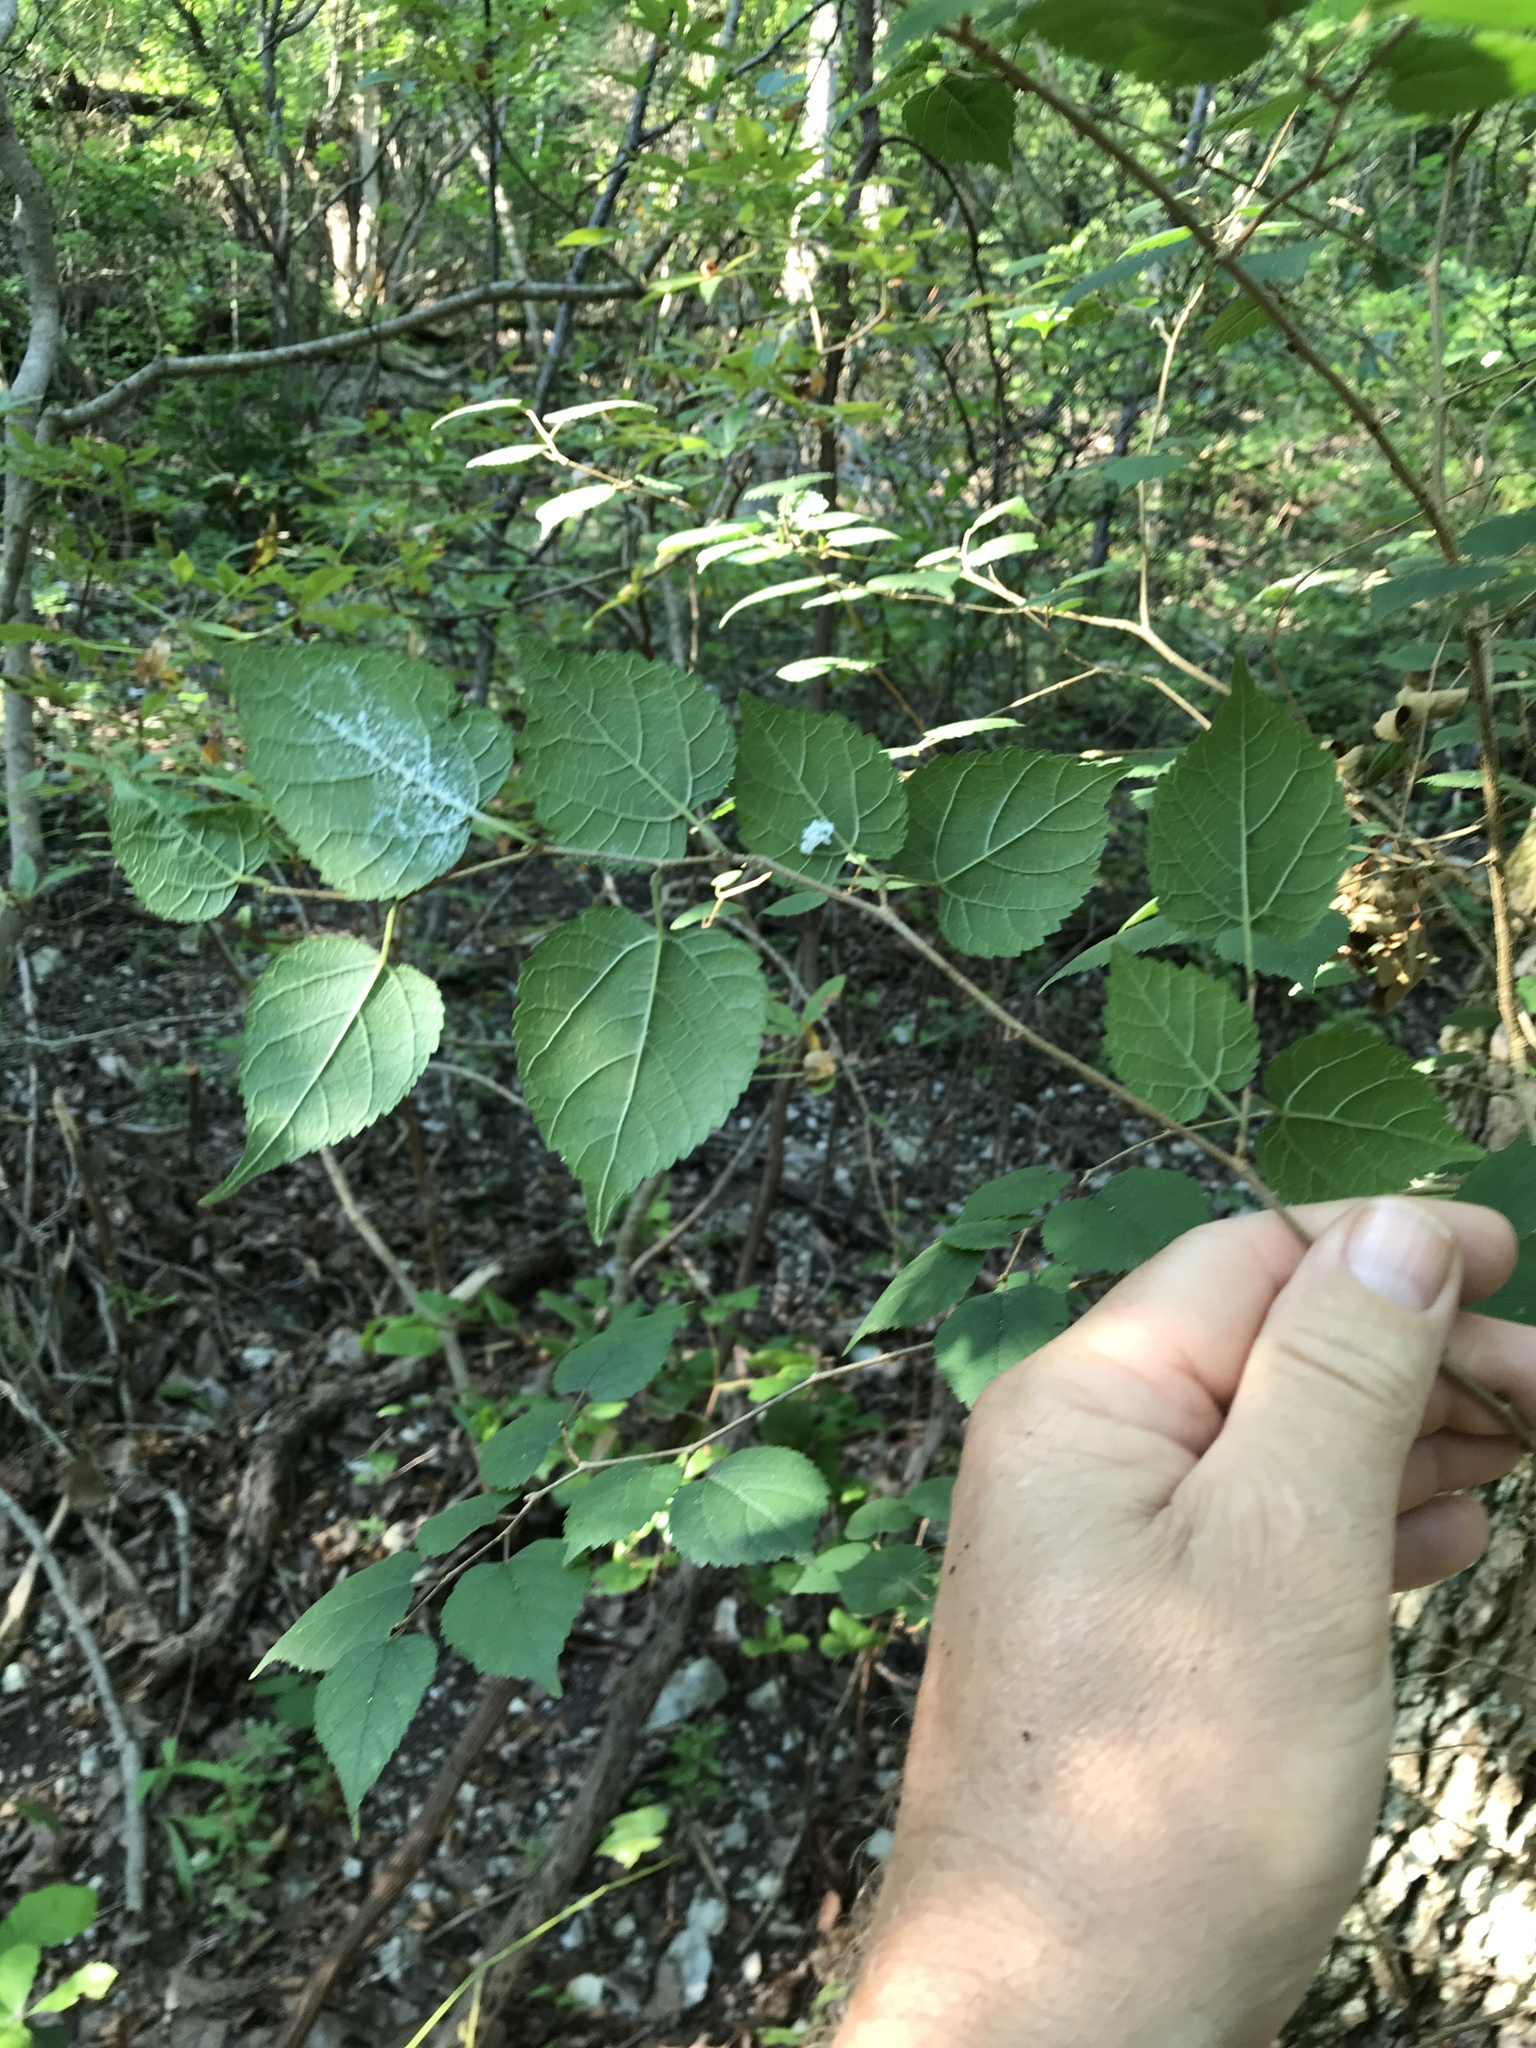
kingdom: Plantae
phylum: Tracheophyta
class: Magnoliopsida
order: Rosales
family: Moraceae
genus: Morus
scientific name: Morus microphylla
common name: Mexican mulberry
